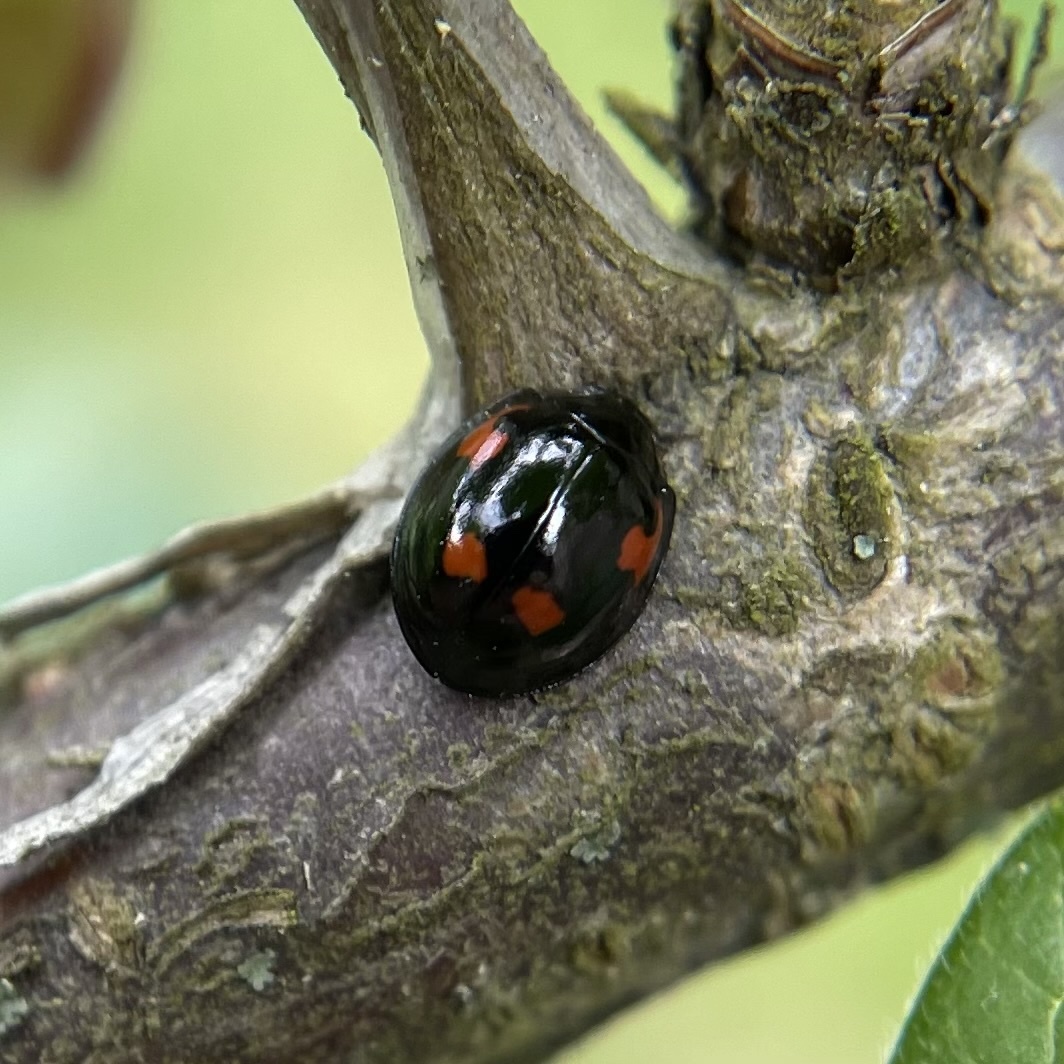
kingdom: Animalia
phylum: Arthropoda
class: Insecta
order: Coleoptera
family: Coccinellidae
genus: Brumus
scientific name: Brumus quadripustulatus
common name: Ladybird beetle
